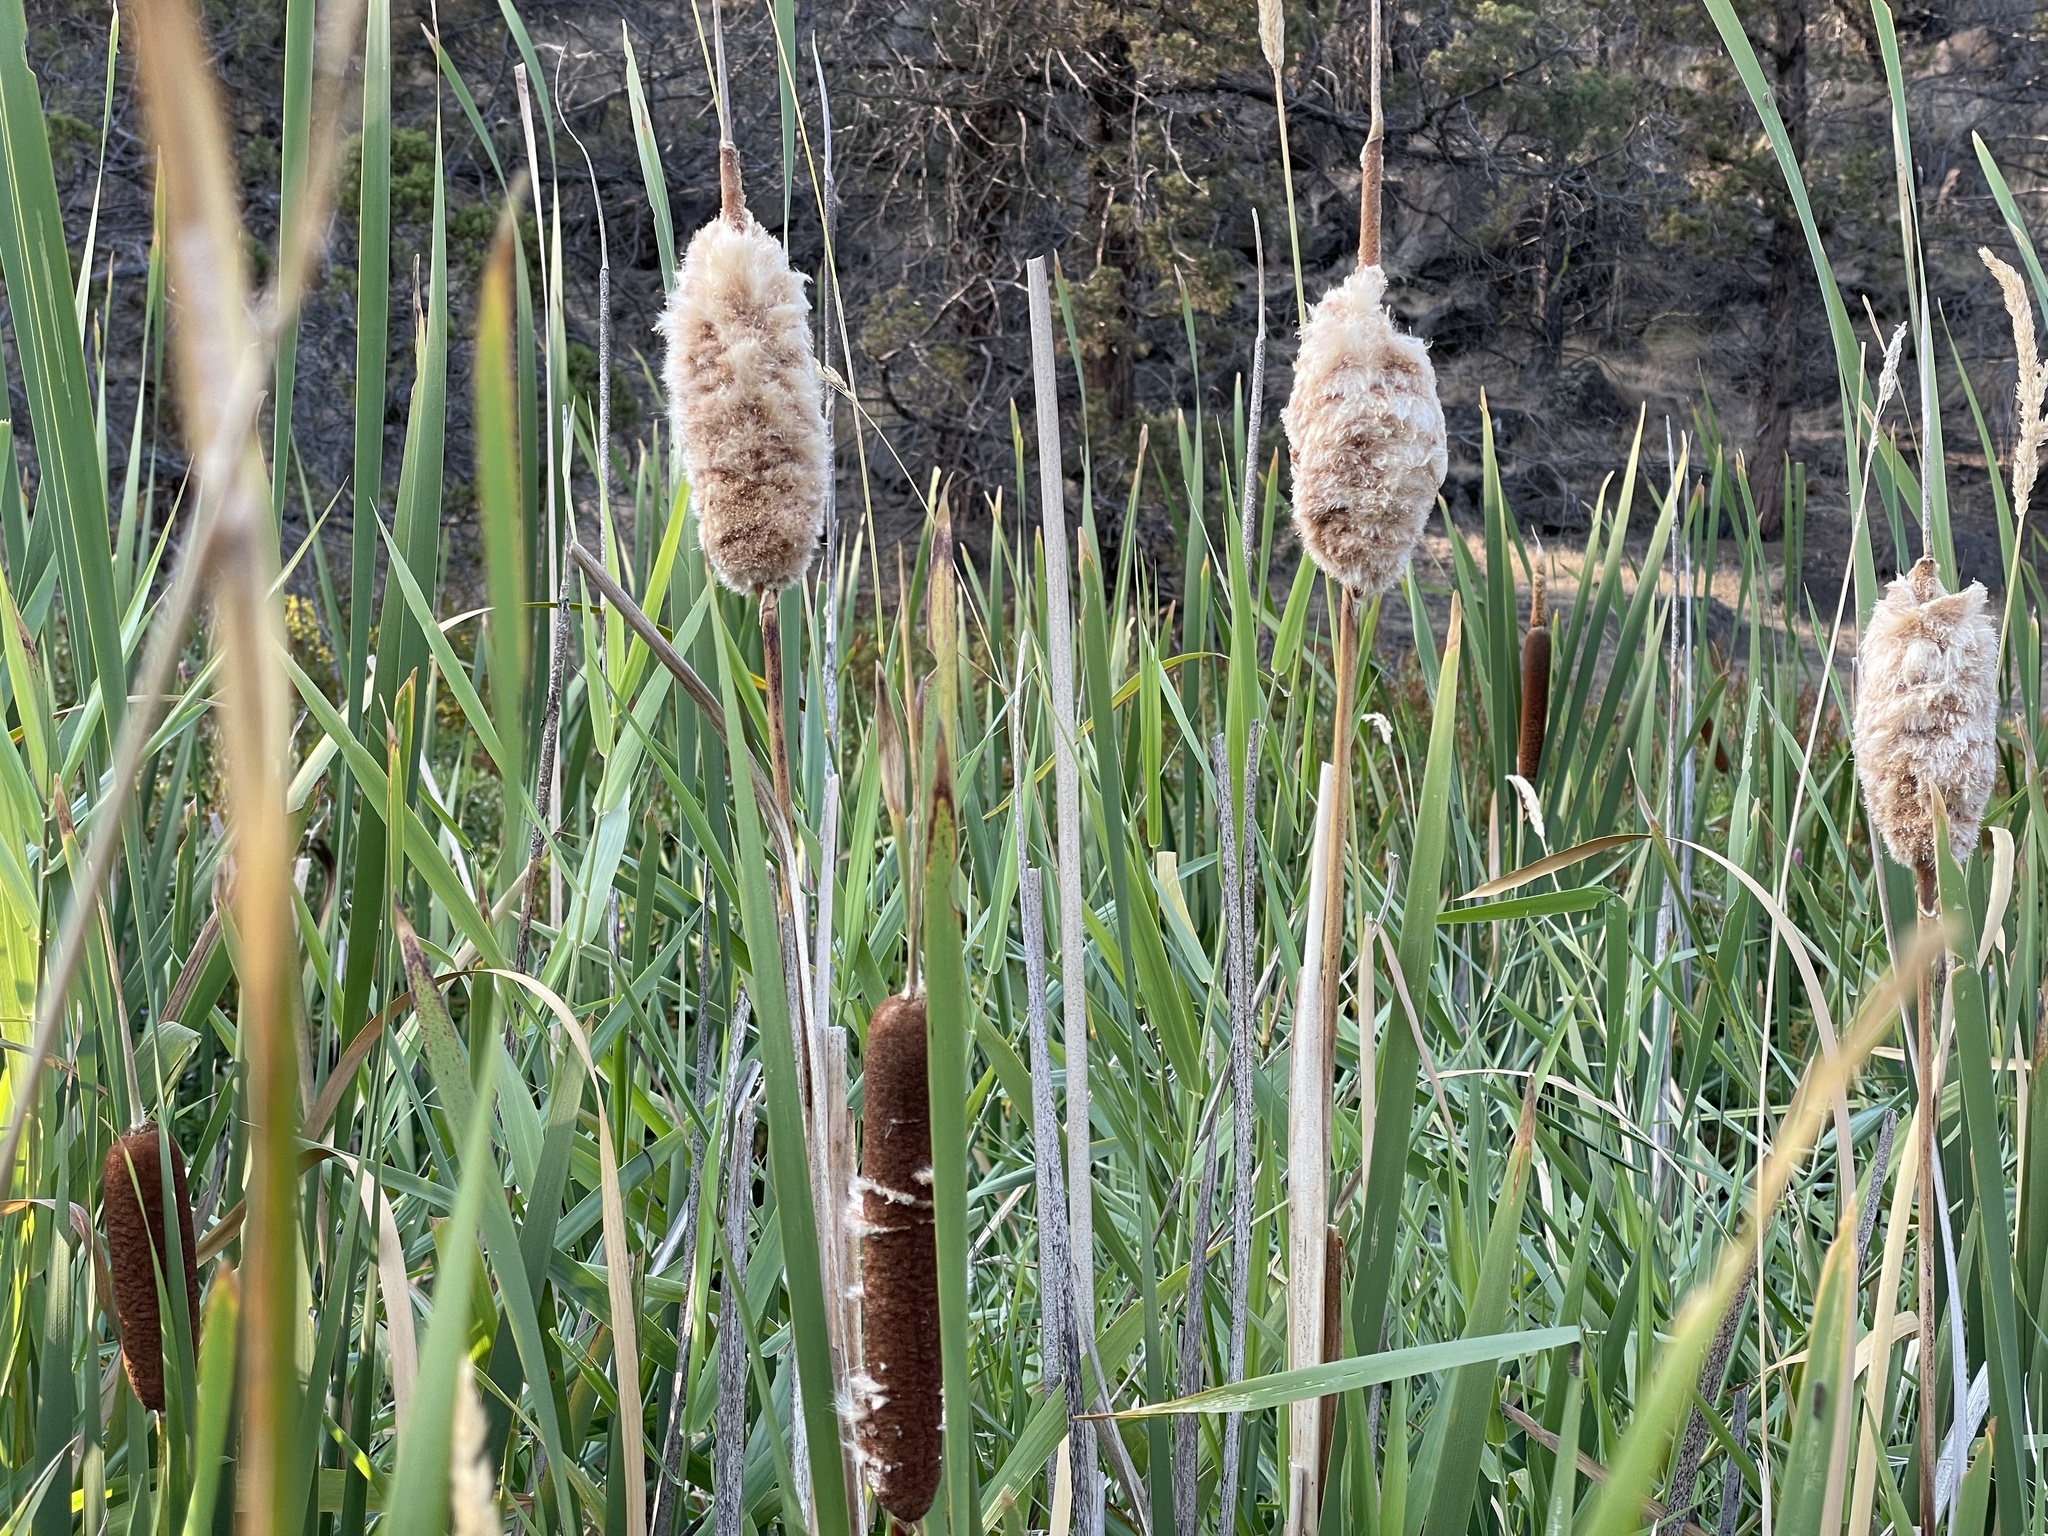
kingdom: Plantae
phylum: Tracheophyta
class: Liliopsida
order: Poales
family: Typhaceae
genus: Typha
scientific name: Typha latifolia
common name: Broadleaf cattail
